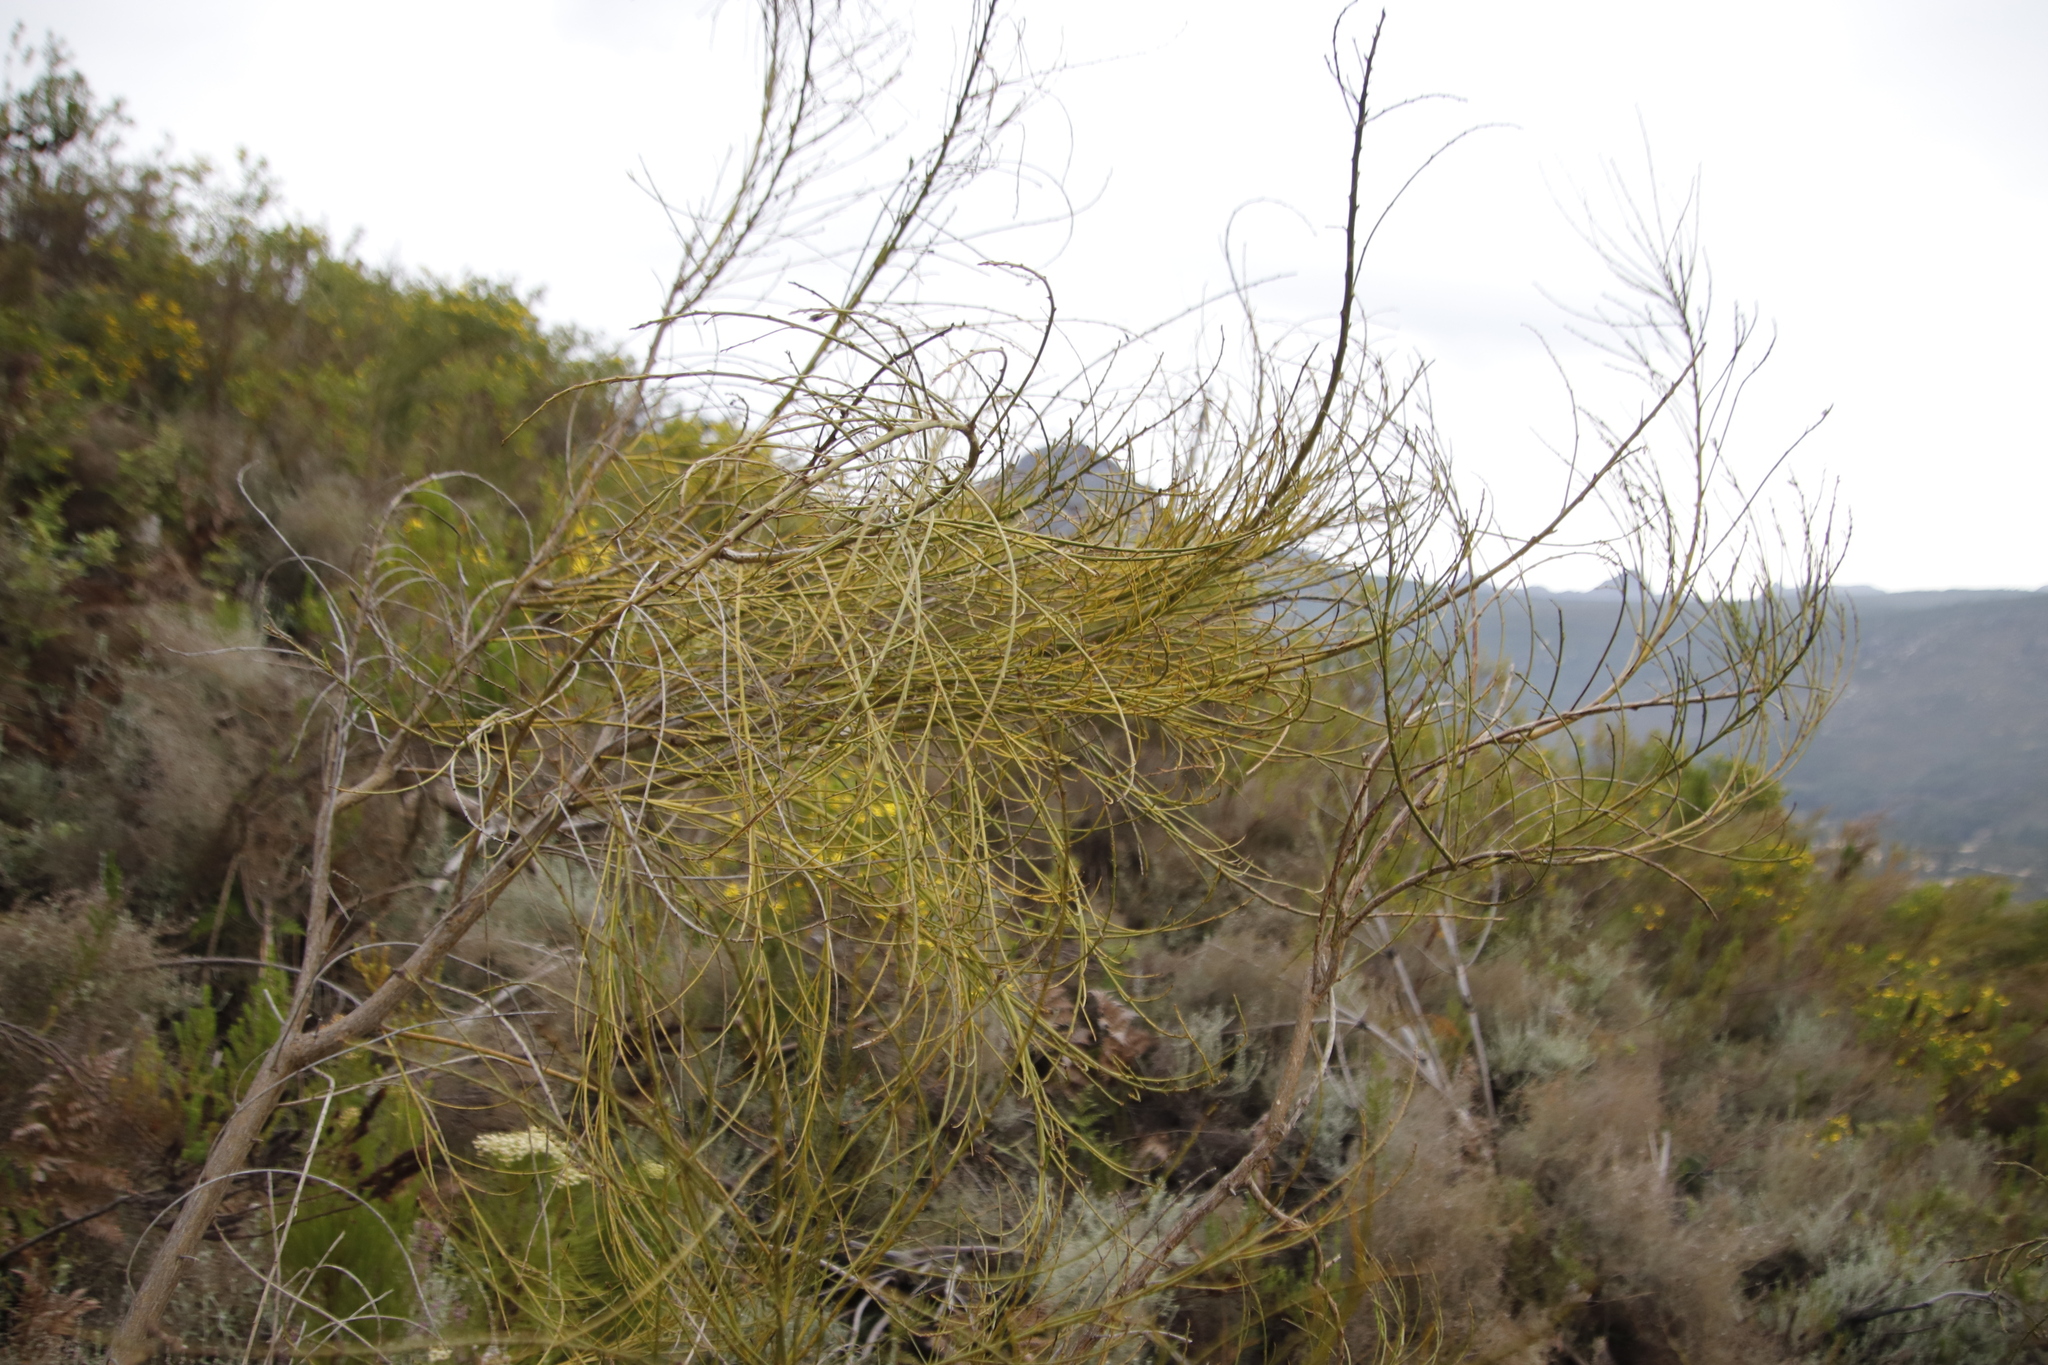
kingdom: Plantae
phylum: Tracheophyta
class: Magnoliopsida
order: Fabales
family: Fabaceae
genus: Psoralea
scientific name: Psoralea usitata
